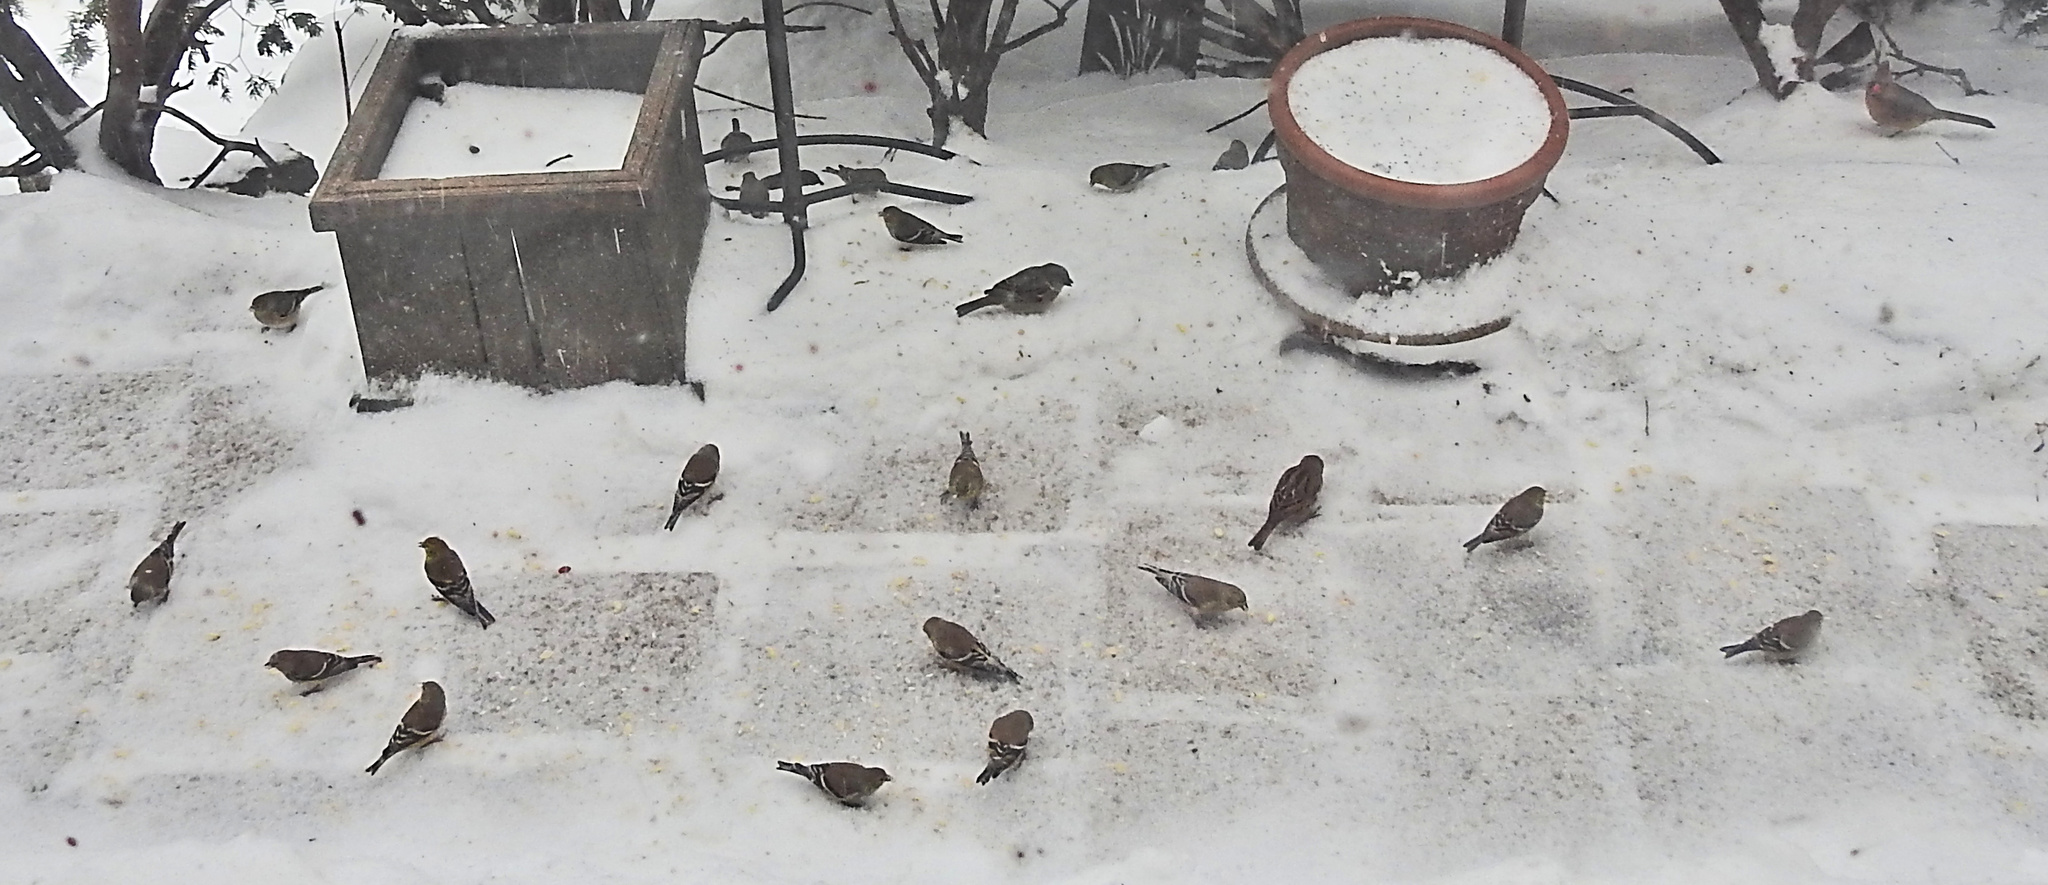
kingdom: Animalia
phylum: Chordata
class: Aves
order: Passeriformes
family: Fringillidae
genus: Spinus
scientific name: Spinus tristis
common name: American goldfinch
